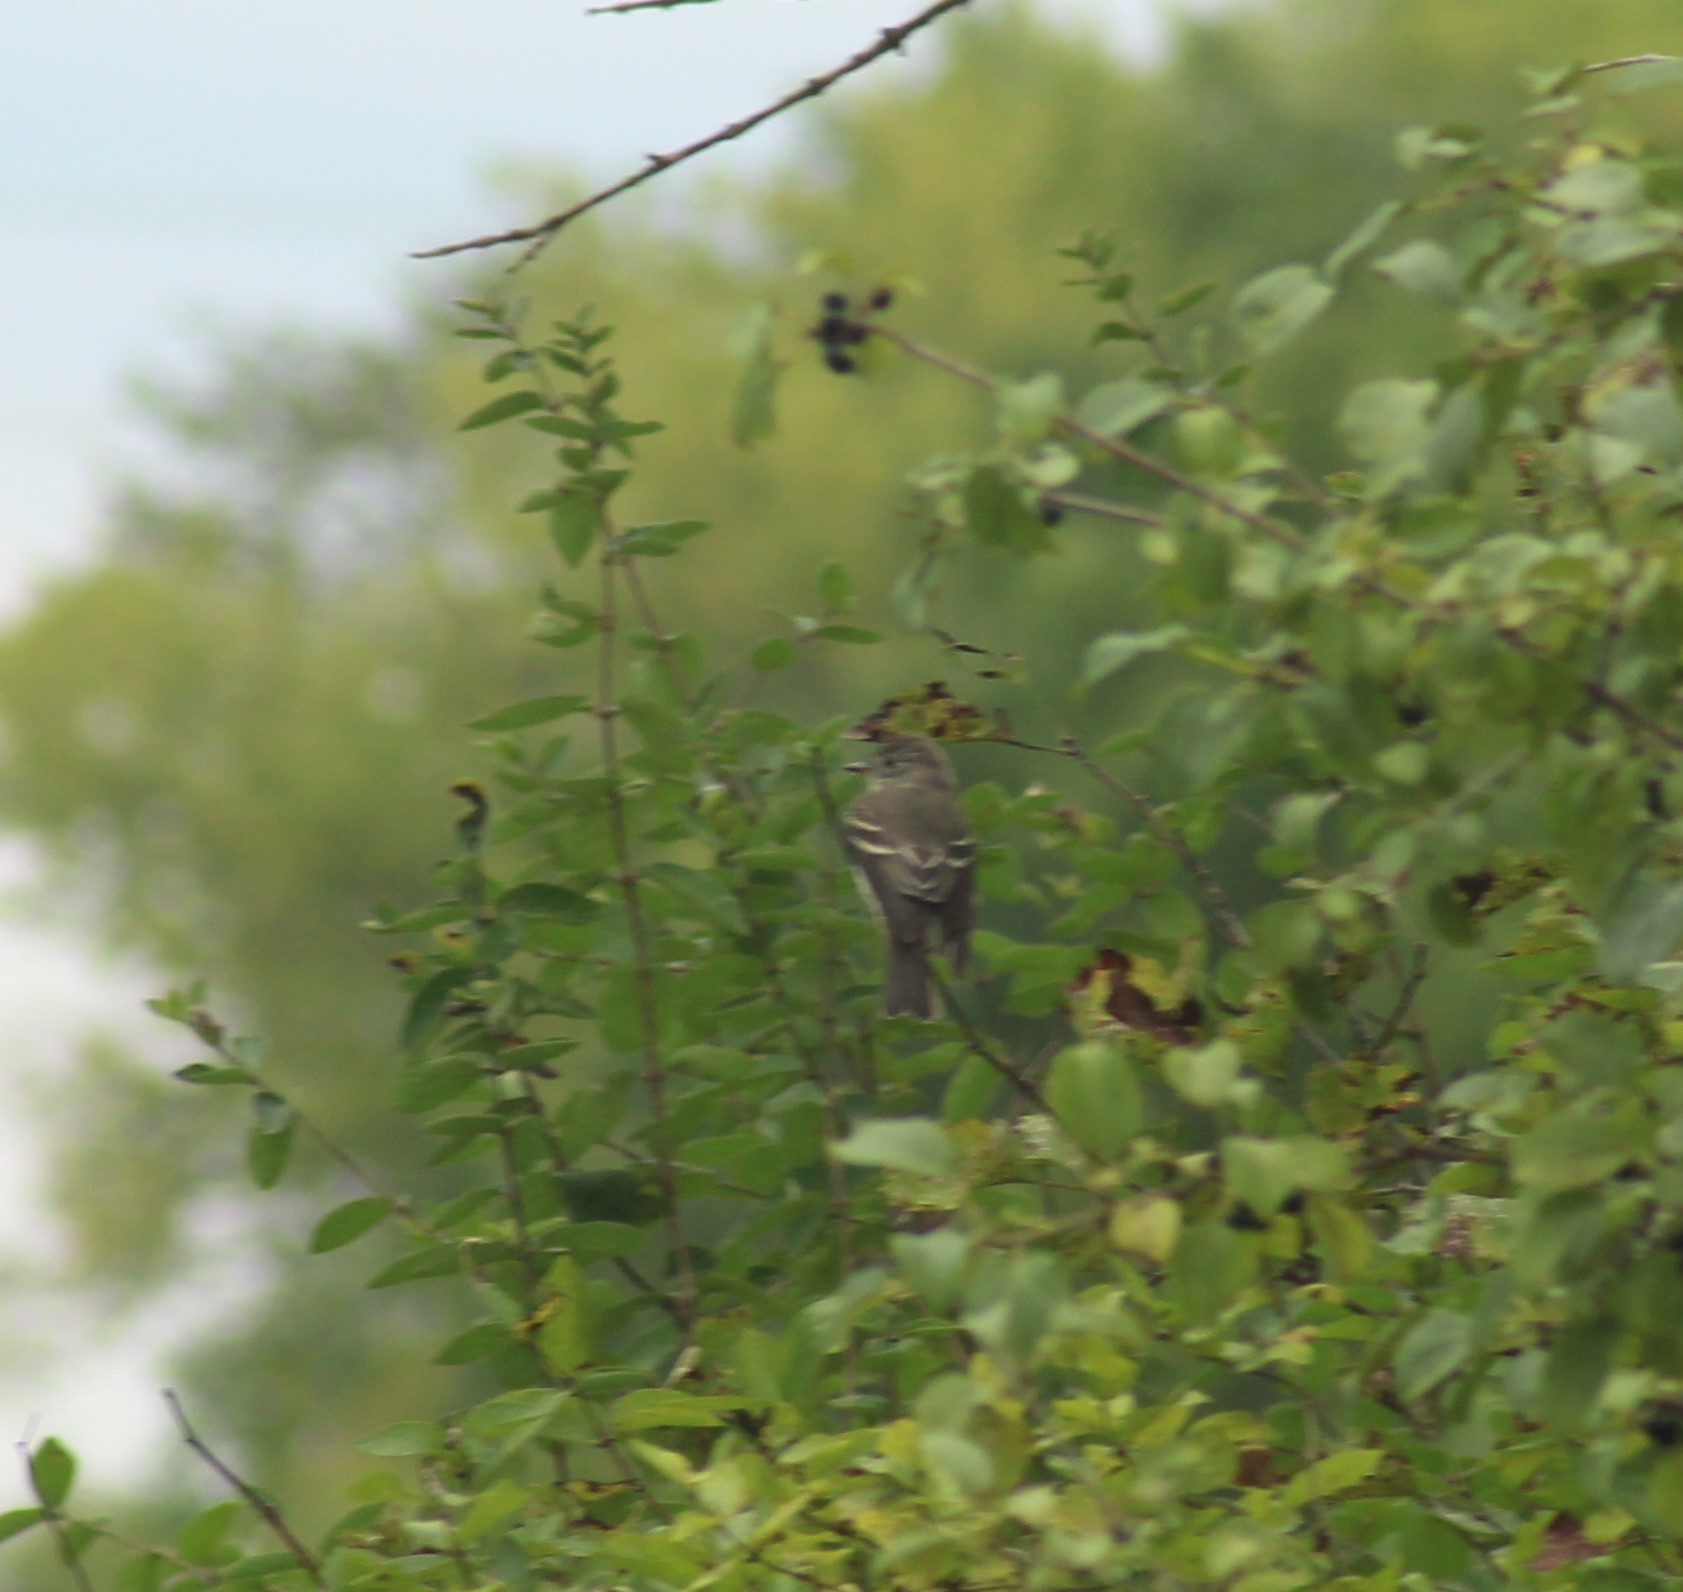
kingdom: Animalia
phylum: Chordata
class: Aves
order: Passeriformes
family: Tyrannidae
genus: Contopus
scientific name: Contopus virens
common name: Eastern wood-pewee
